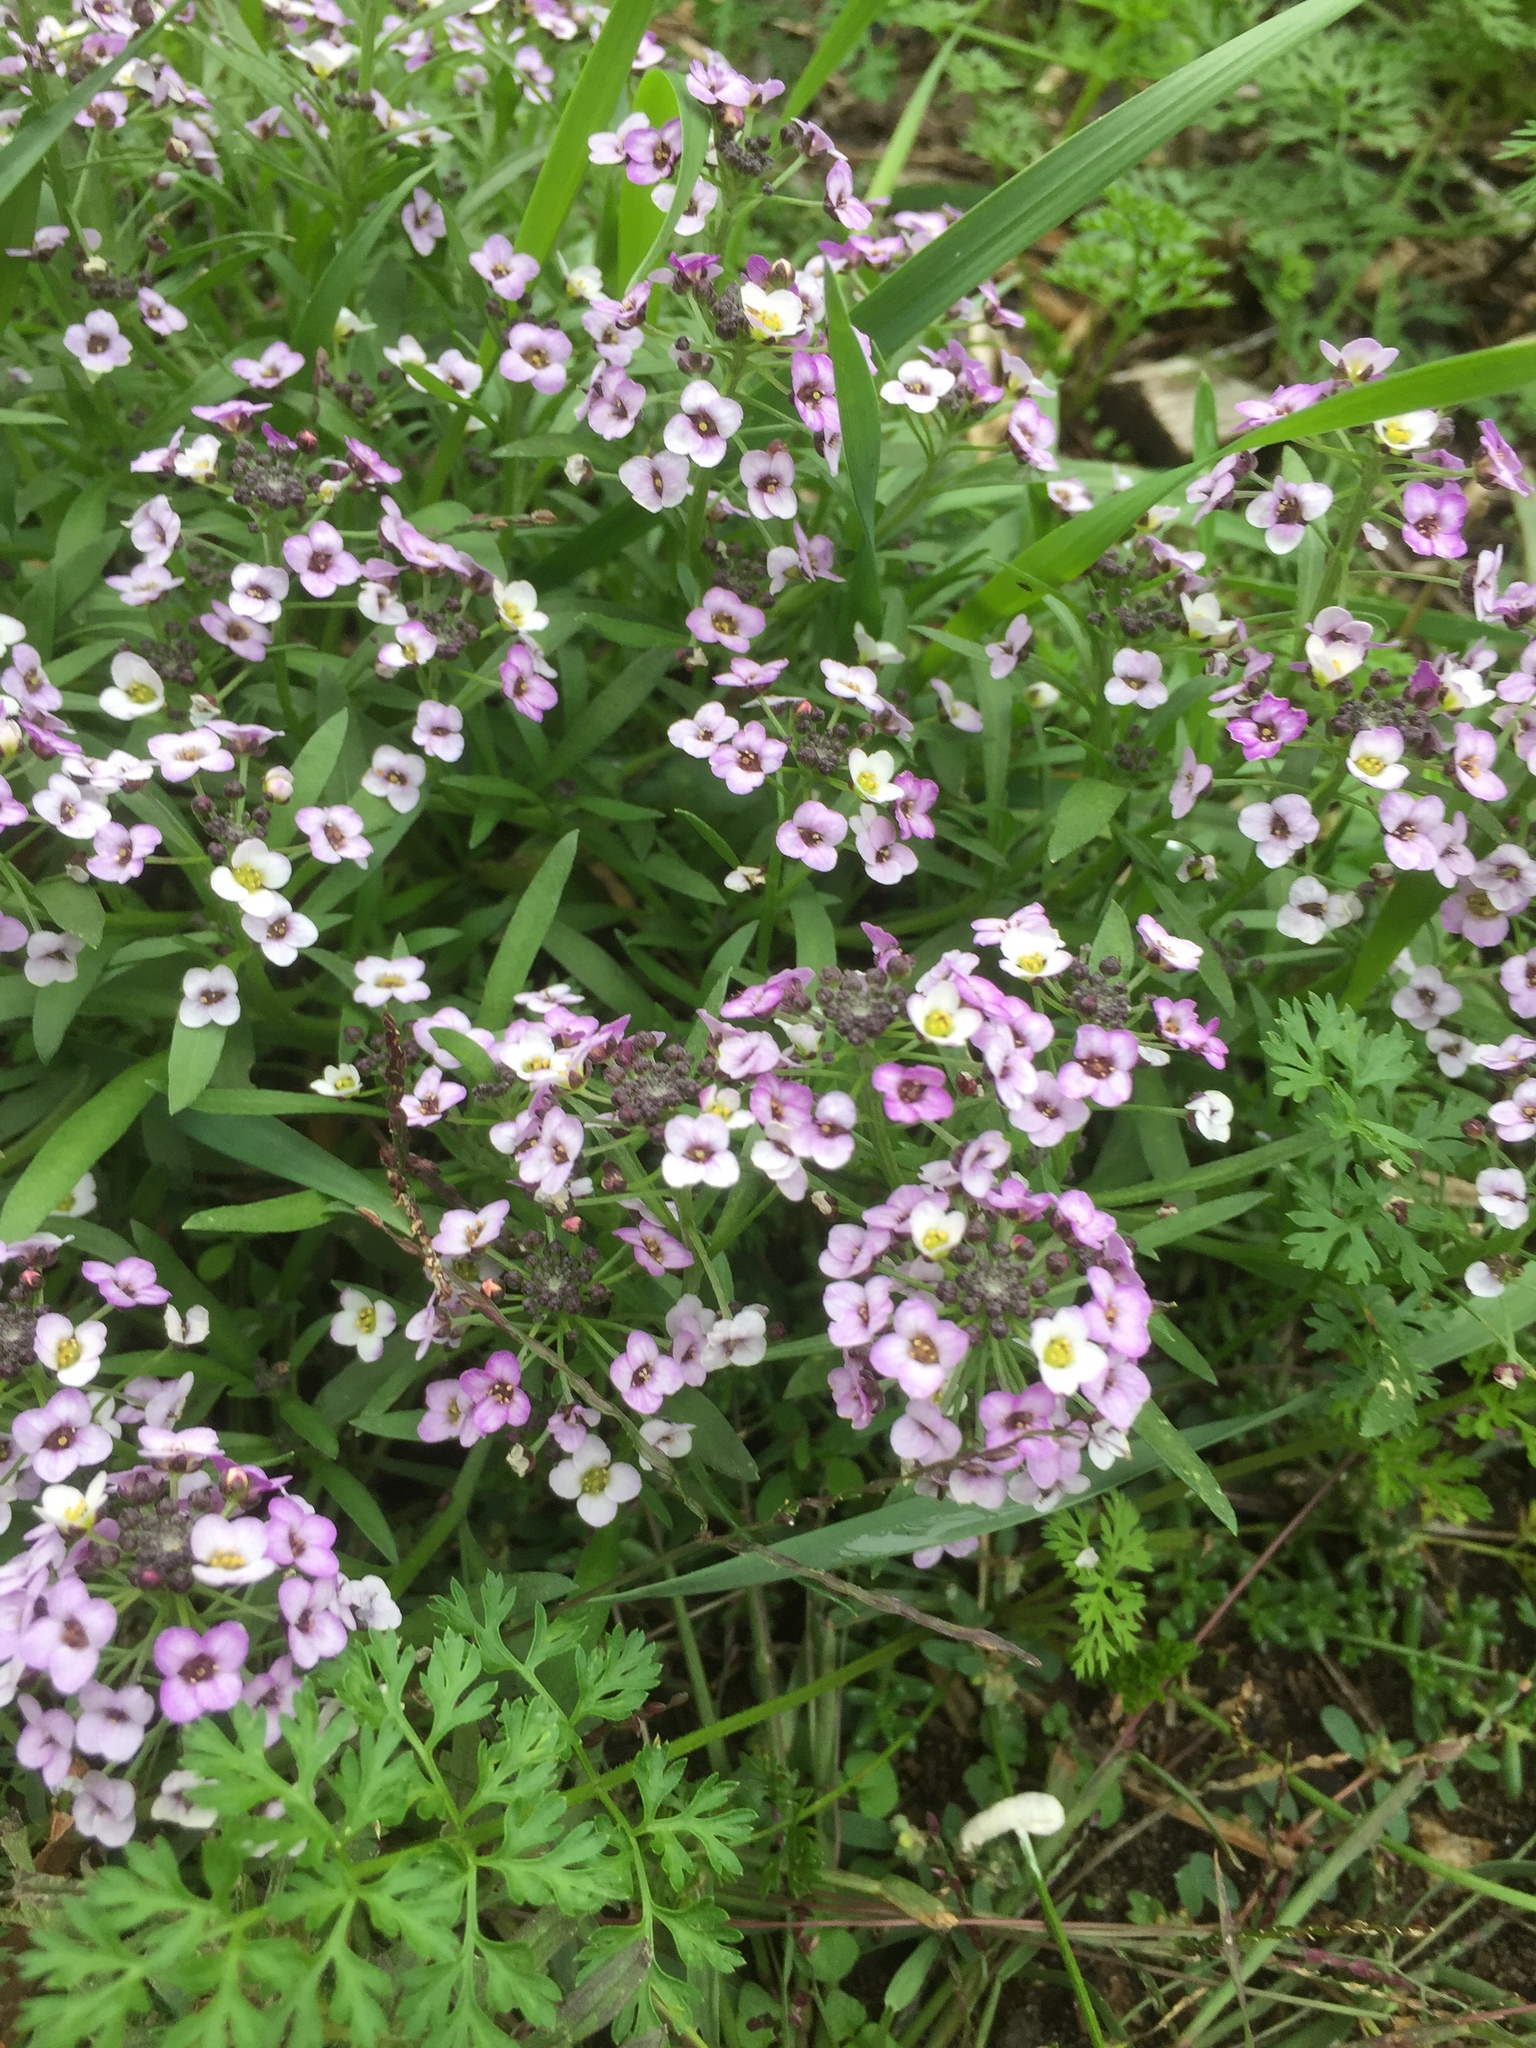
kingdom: Plantae
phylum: Tracheophyta
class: Magnoliopsida
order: Brassicales
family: Brassicaceae
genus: Lobularia
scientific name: Lobularia maritima
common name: Sweet alison
